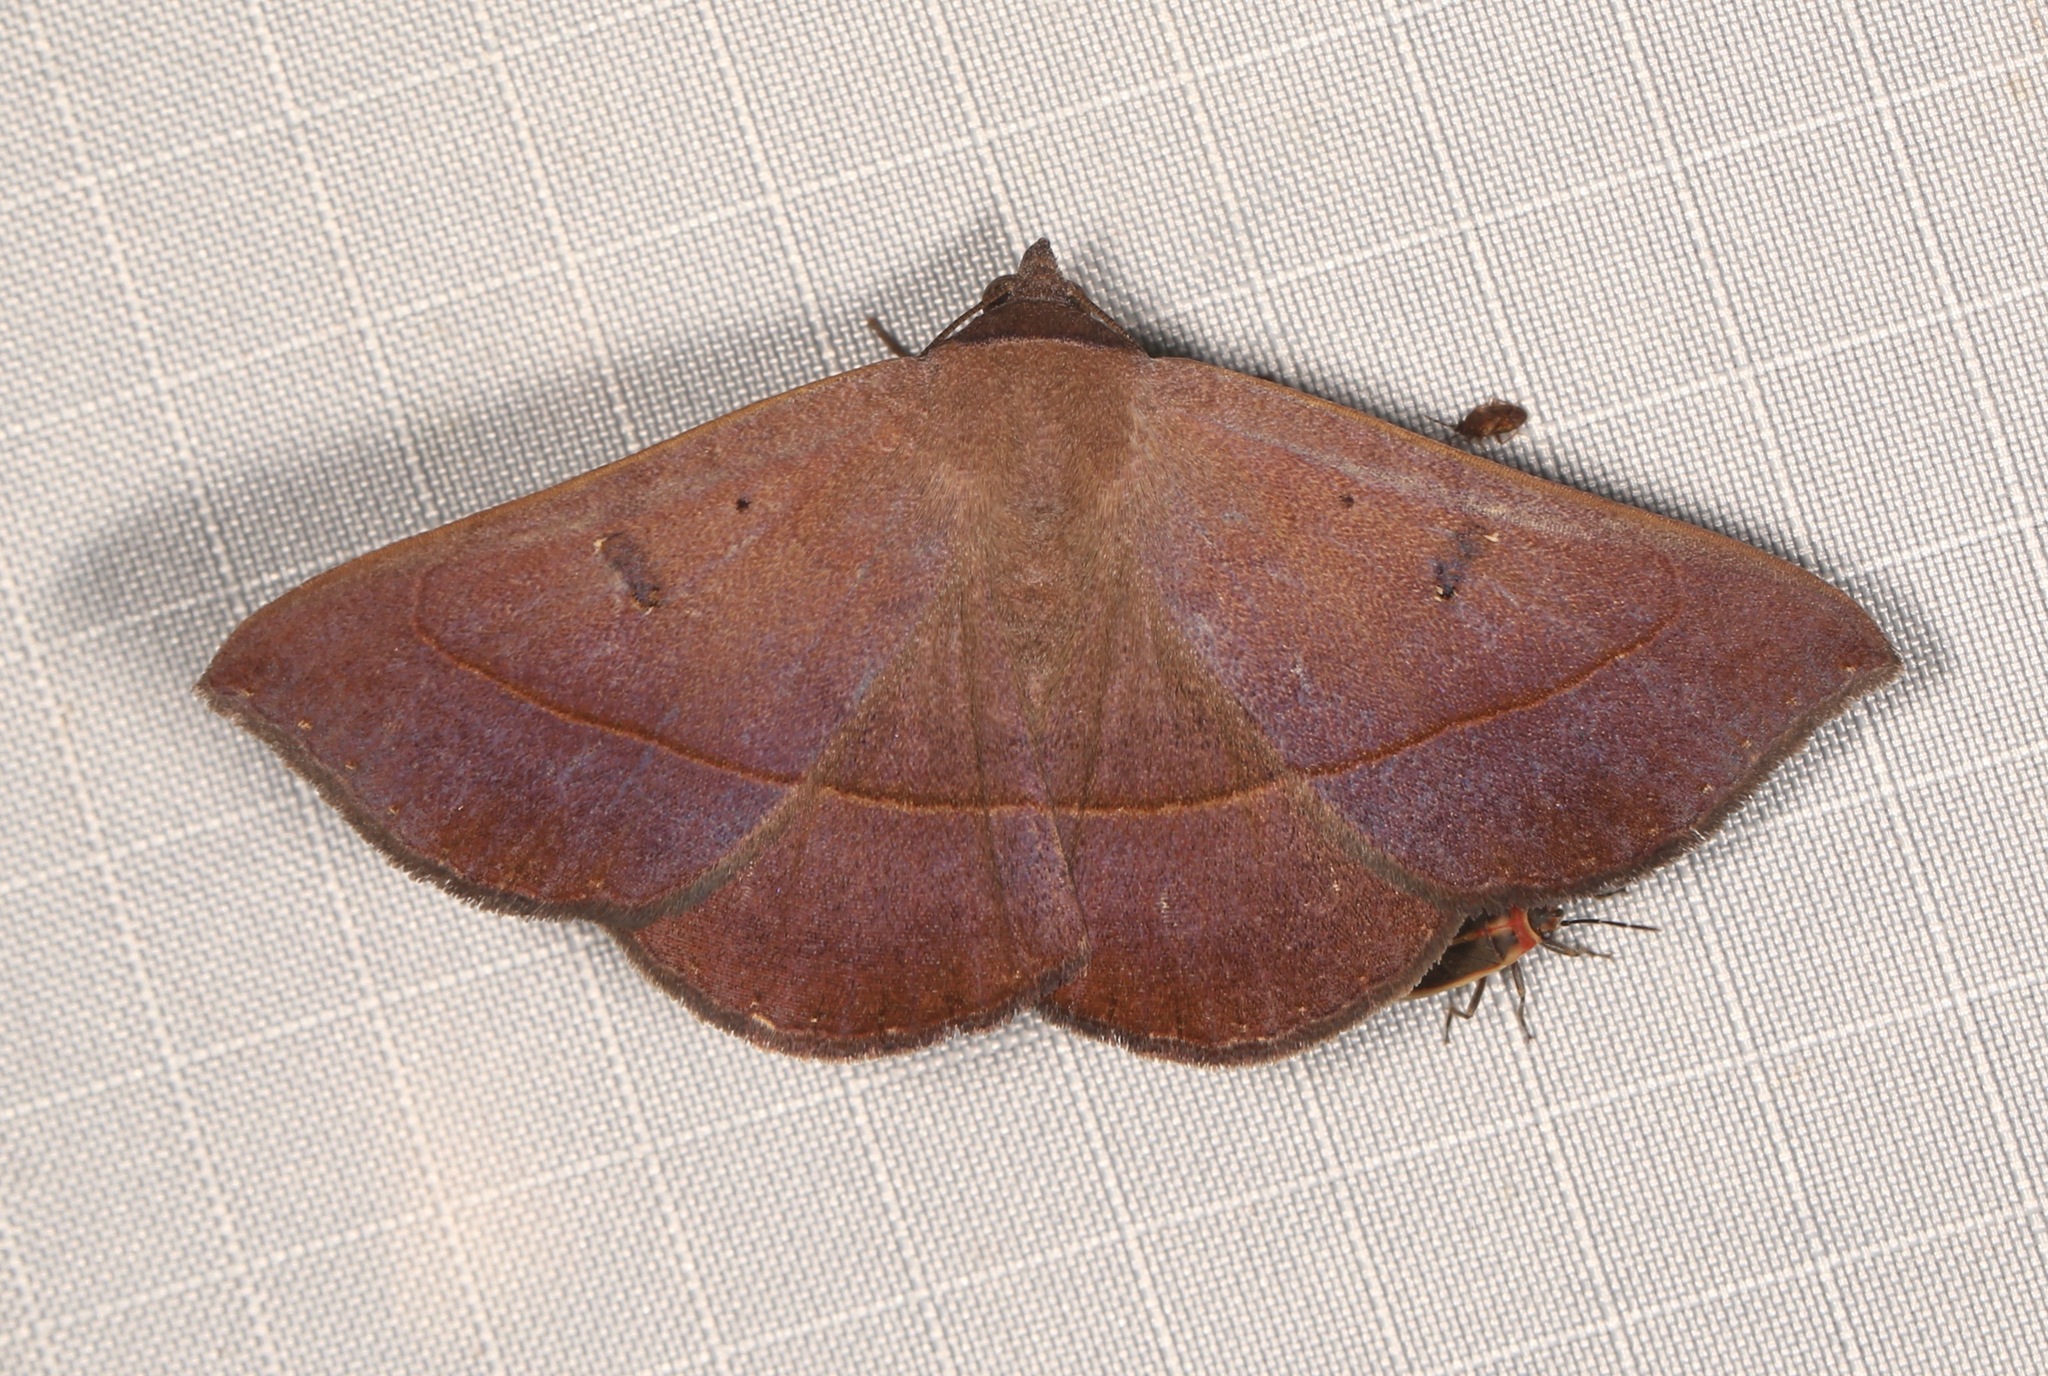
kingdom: Animalia
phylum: Arthropoda
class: Insecta
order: Lepidoptera
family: Erebidae
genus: Epidromia
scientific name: Epidromia rotundata
